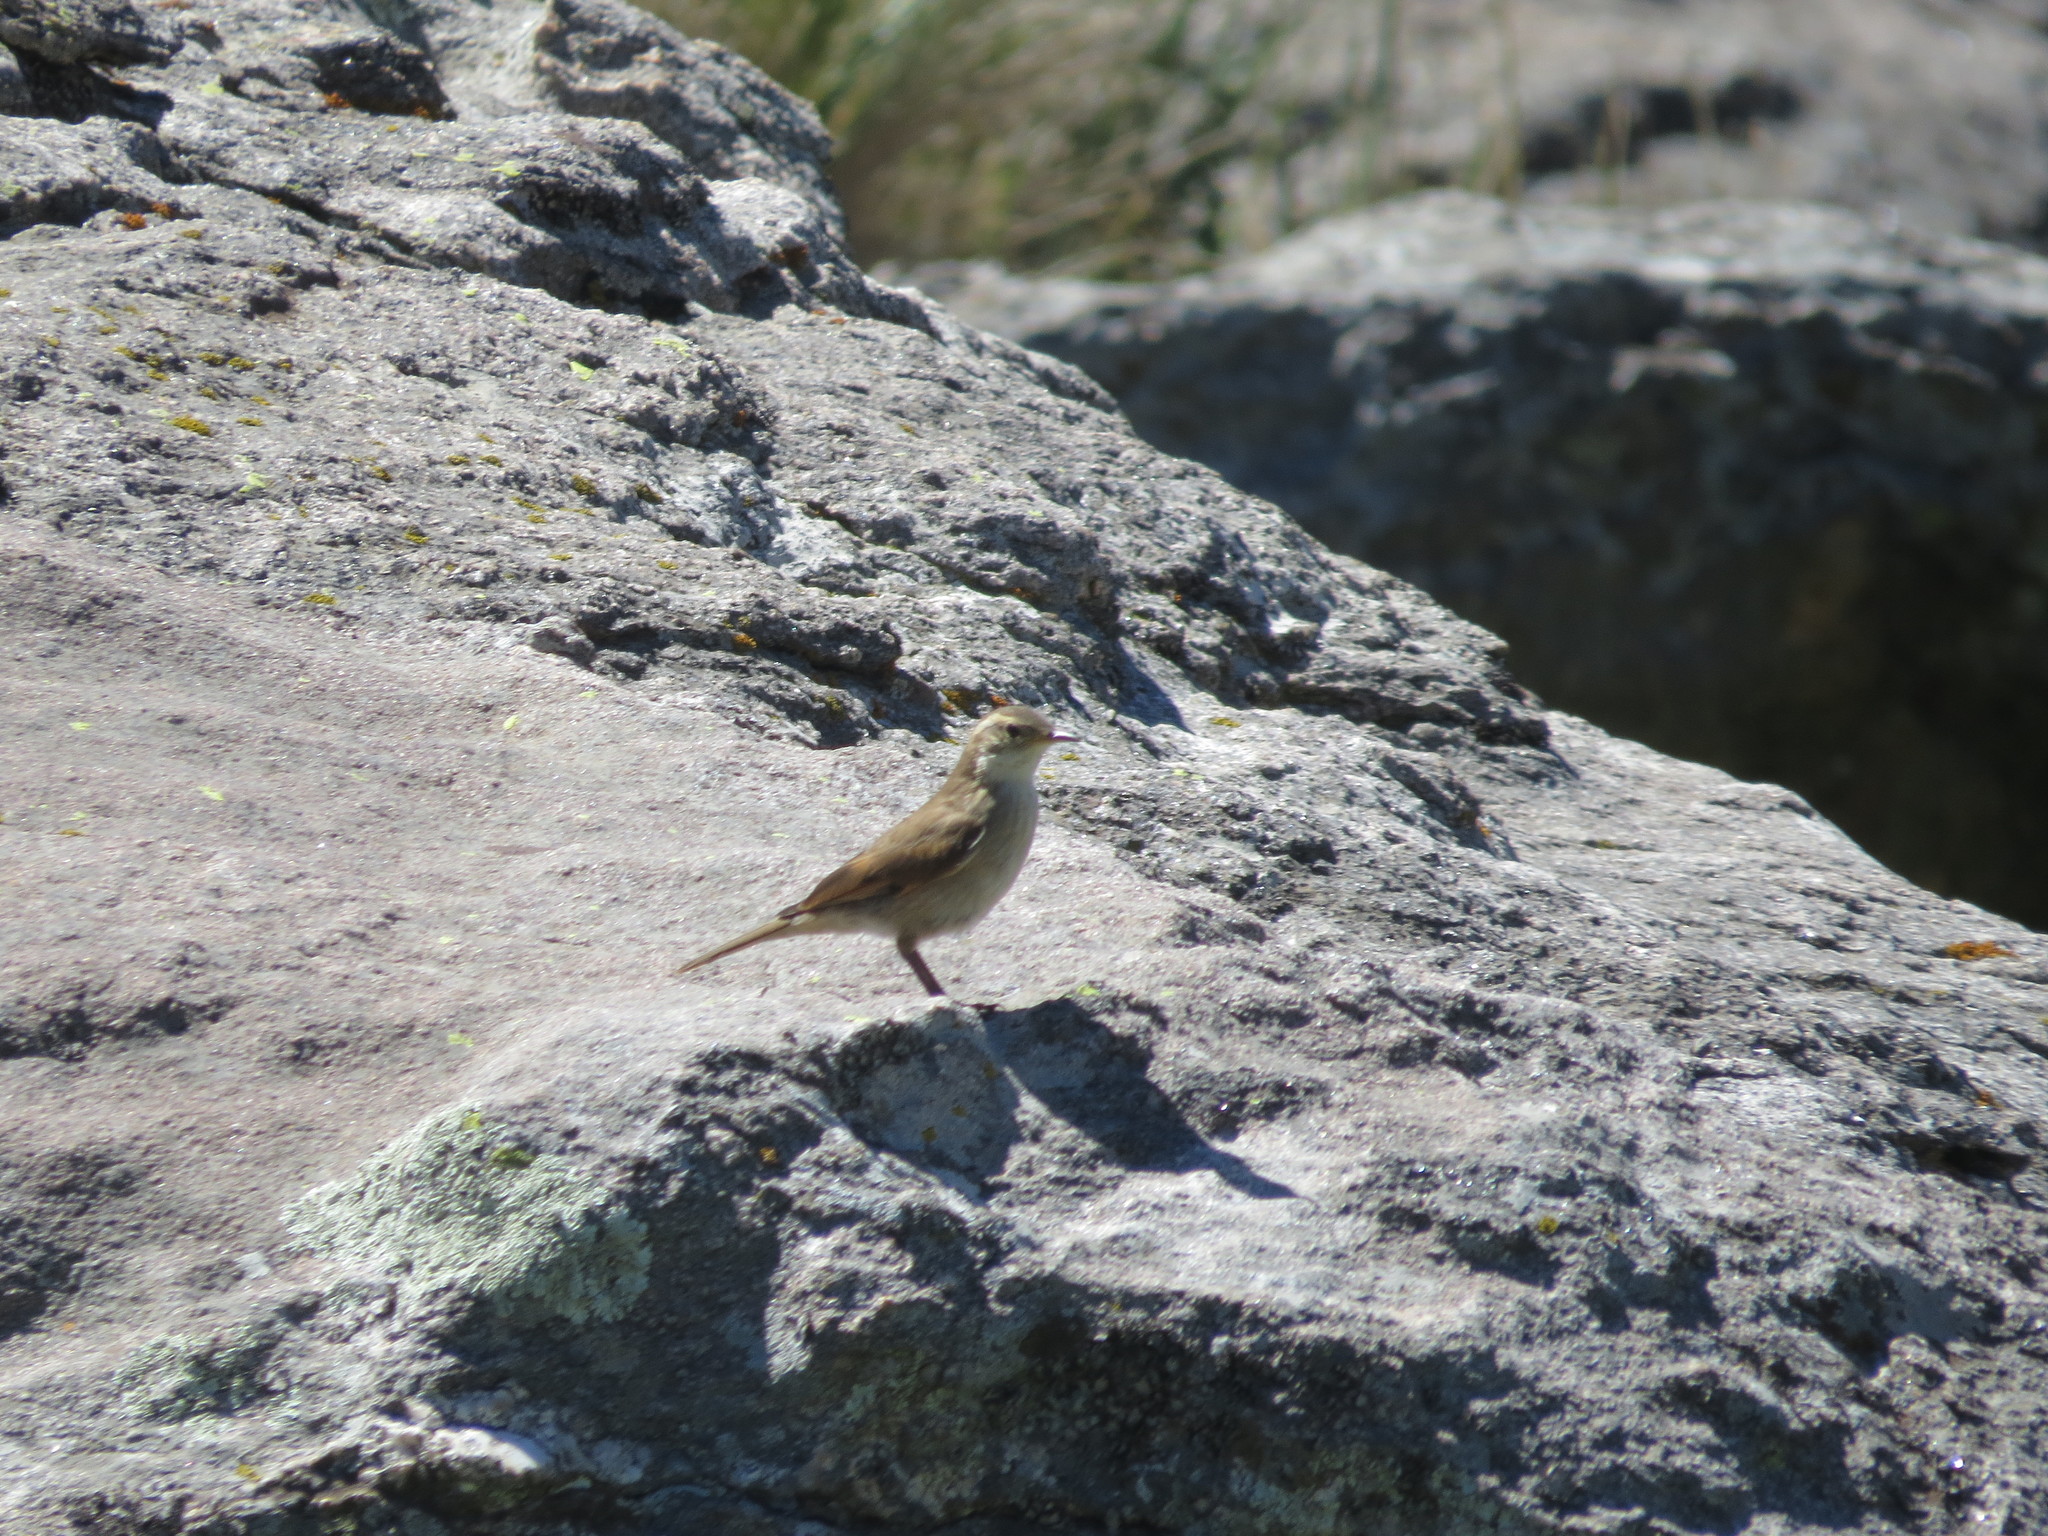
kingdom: Animalia
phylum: Chordata
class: Aves
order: Passeriformes
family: Furnariidae
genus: Cinclodes
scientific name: Cinclodes comechingonus
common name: Cordoba cinclodes
